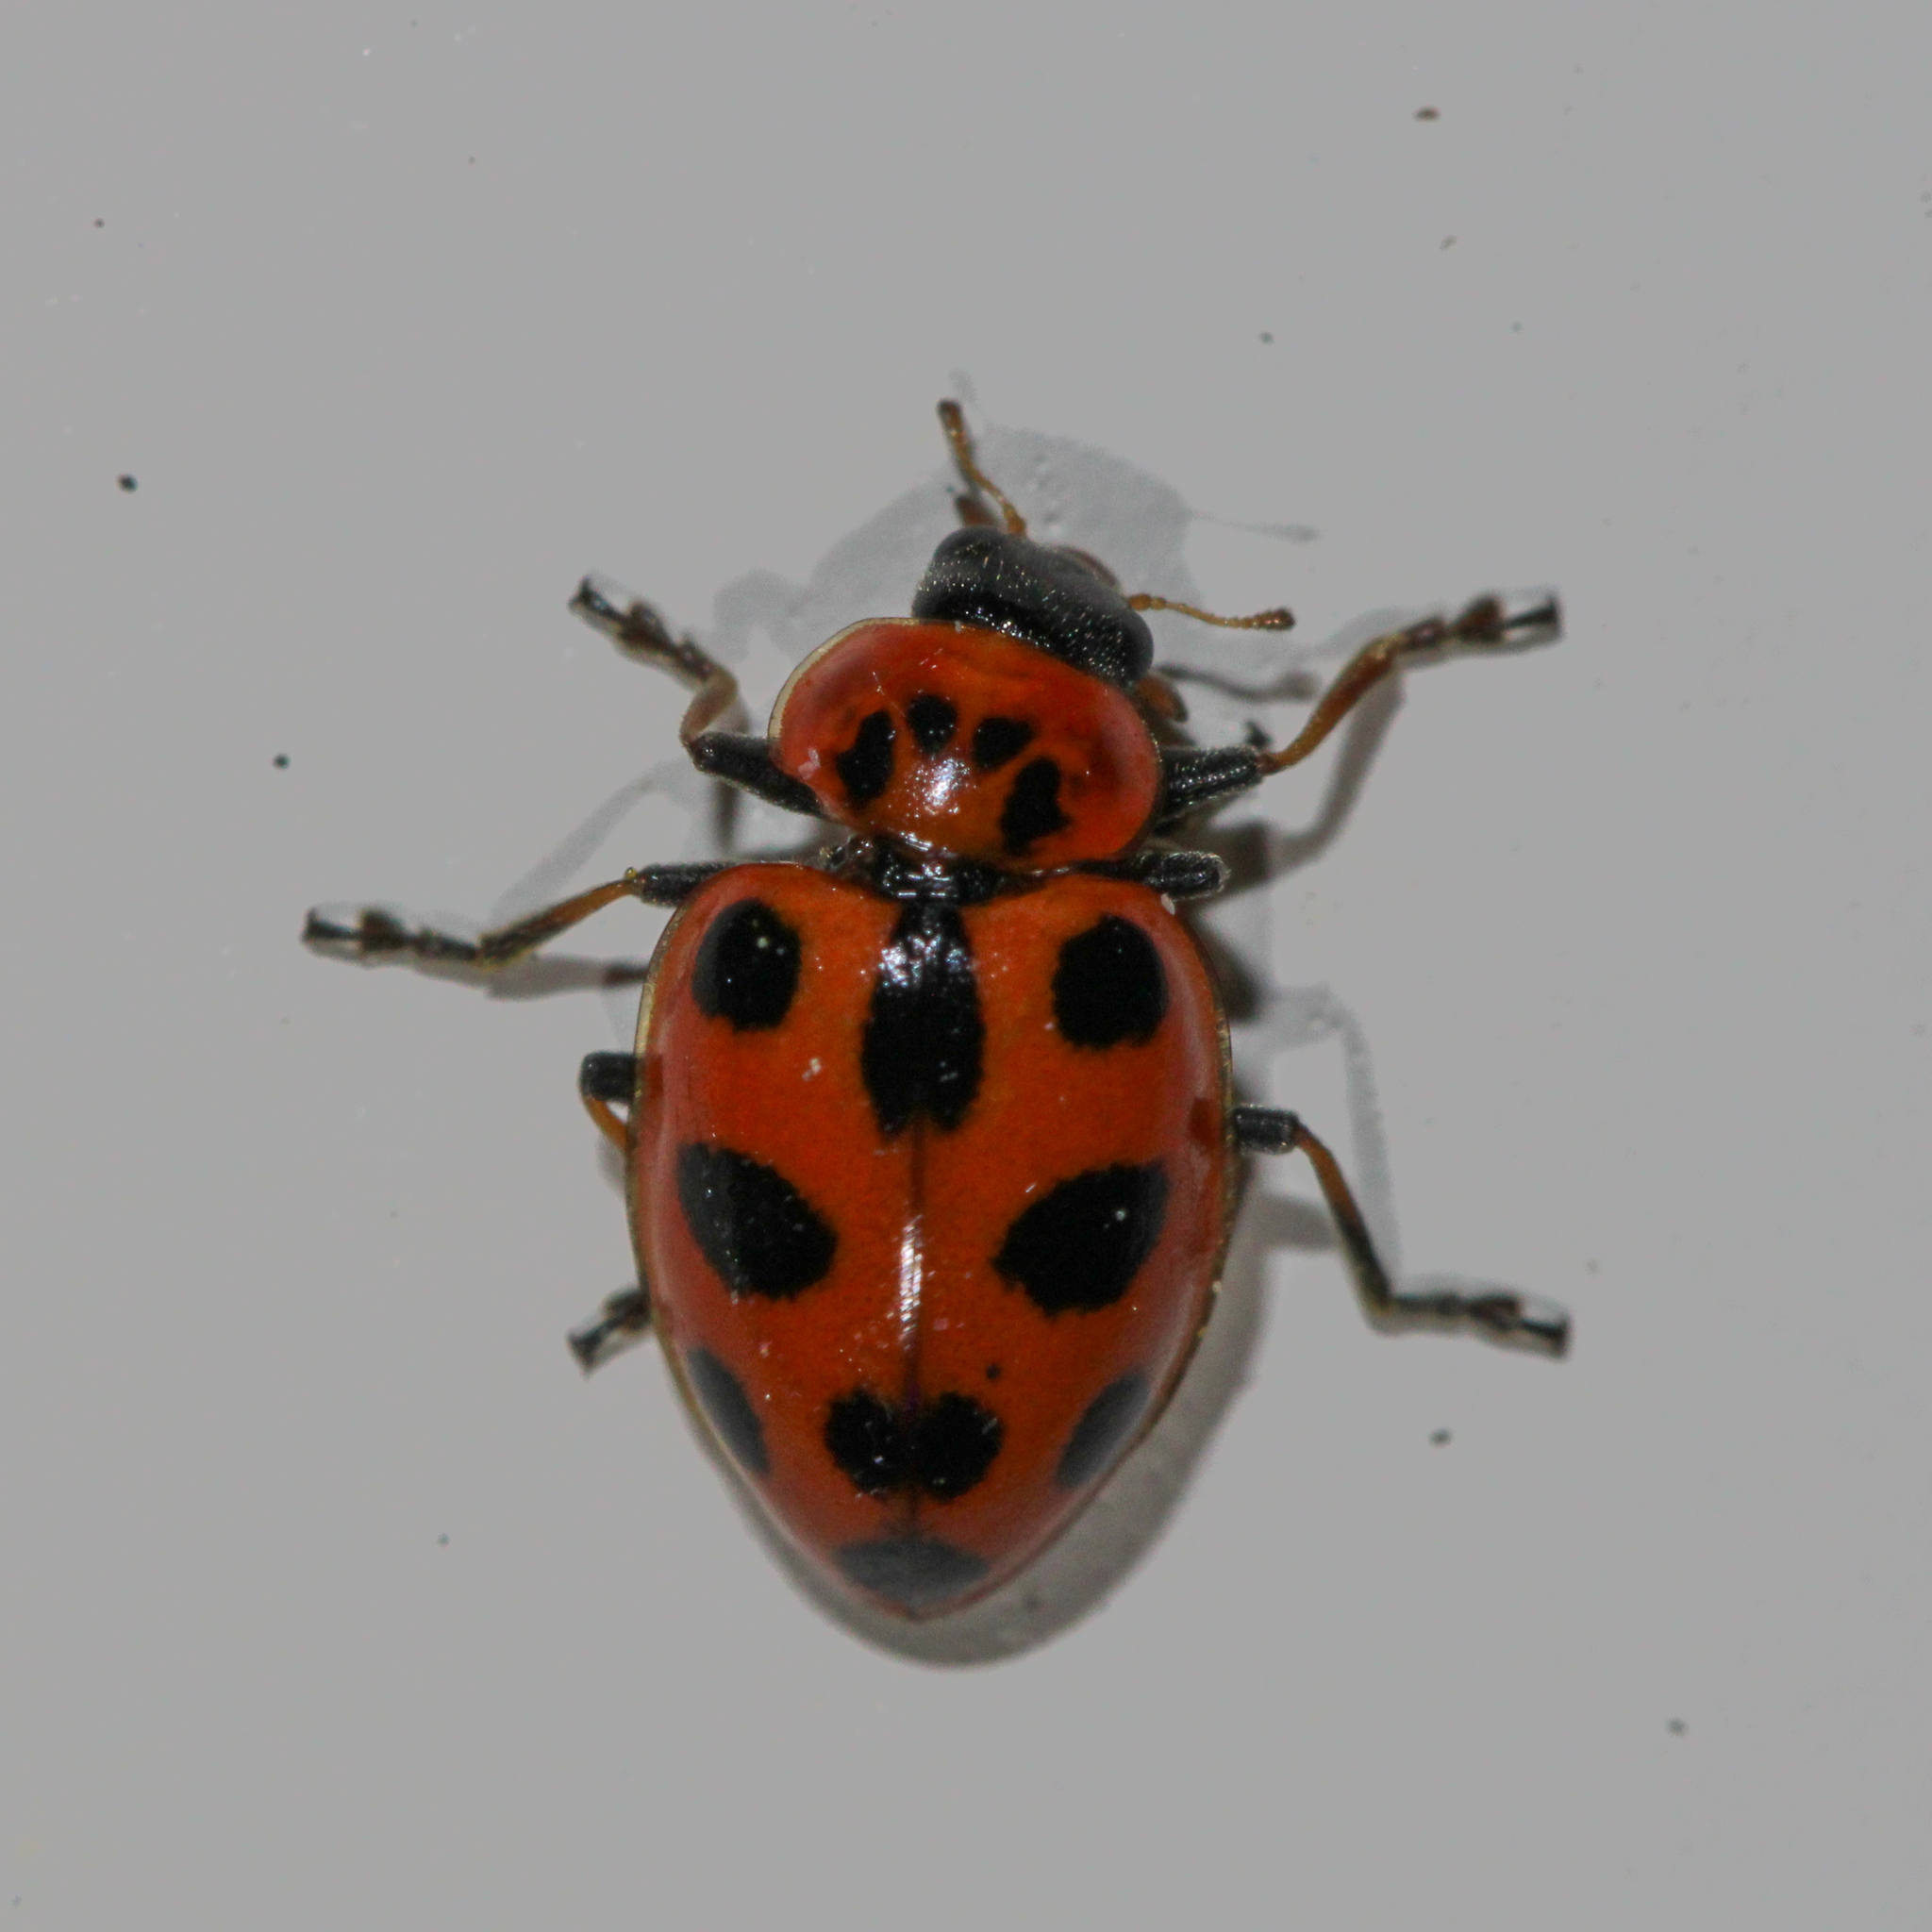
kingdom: Animalia
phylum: Arthropoda
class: Insecta
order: Coleoptera
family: Coccinellidae
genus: Naemia
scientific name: Naemia seriata
